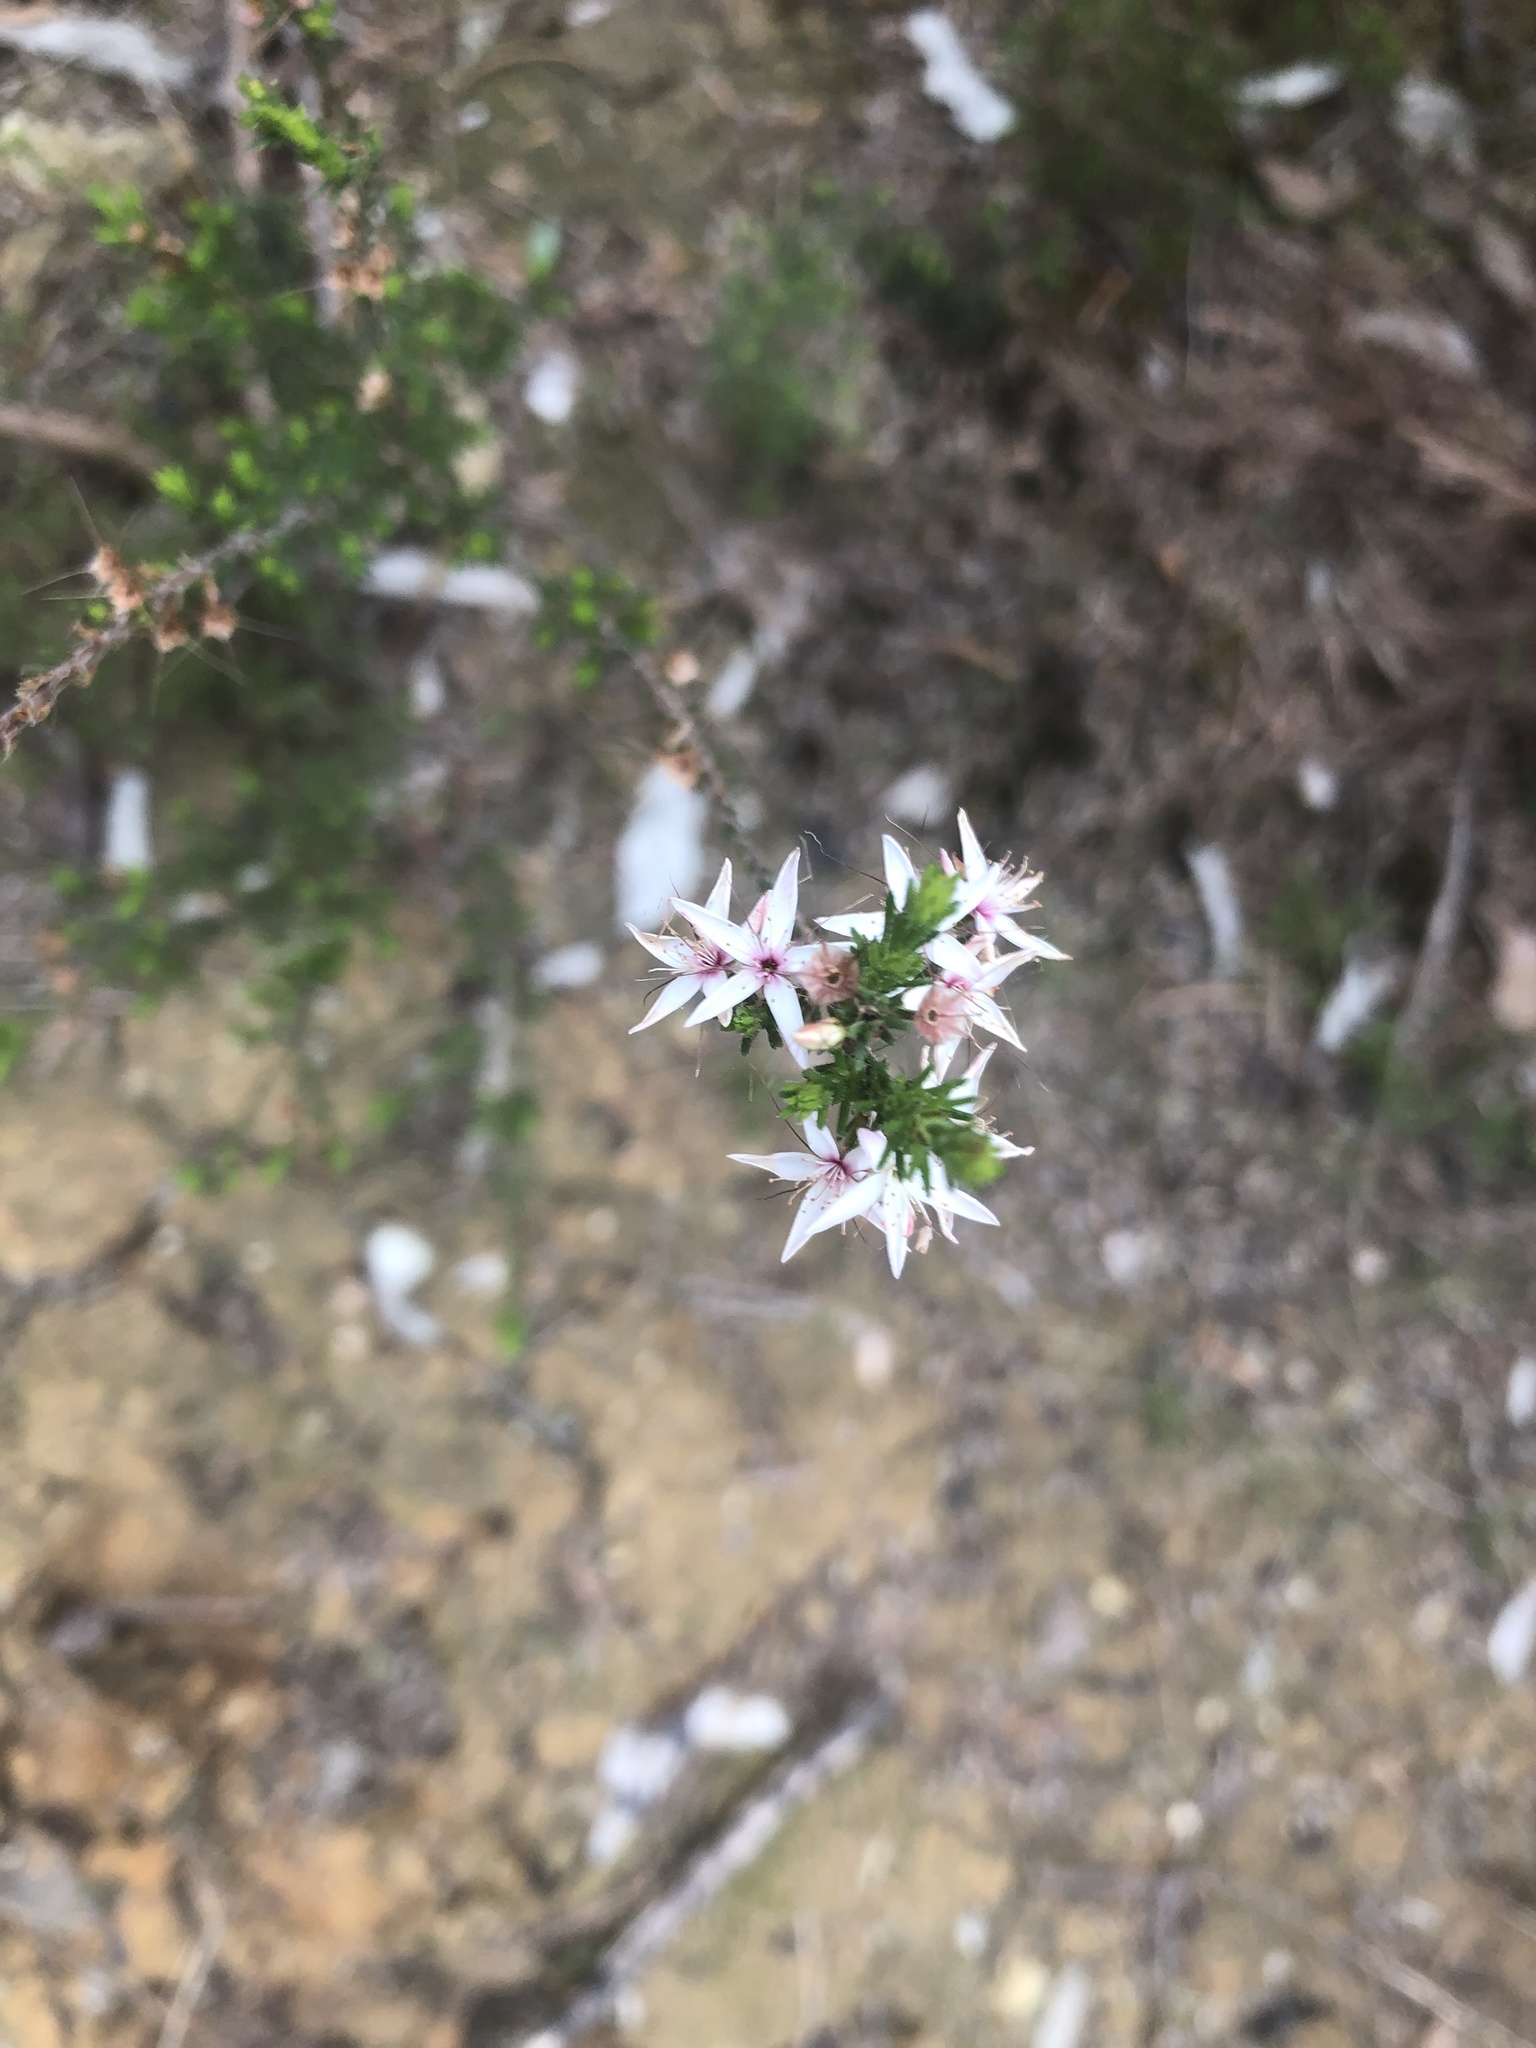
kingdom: Plantae
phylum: Tracheophyta
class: Magnoliopsida
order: Myrtales
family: Myrtaceae
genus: Calytrix
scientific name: Calytrix tetragona
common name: Common fringe myrtle
